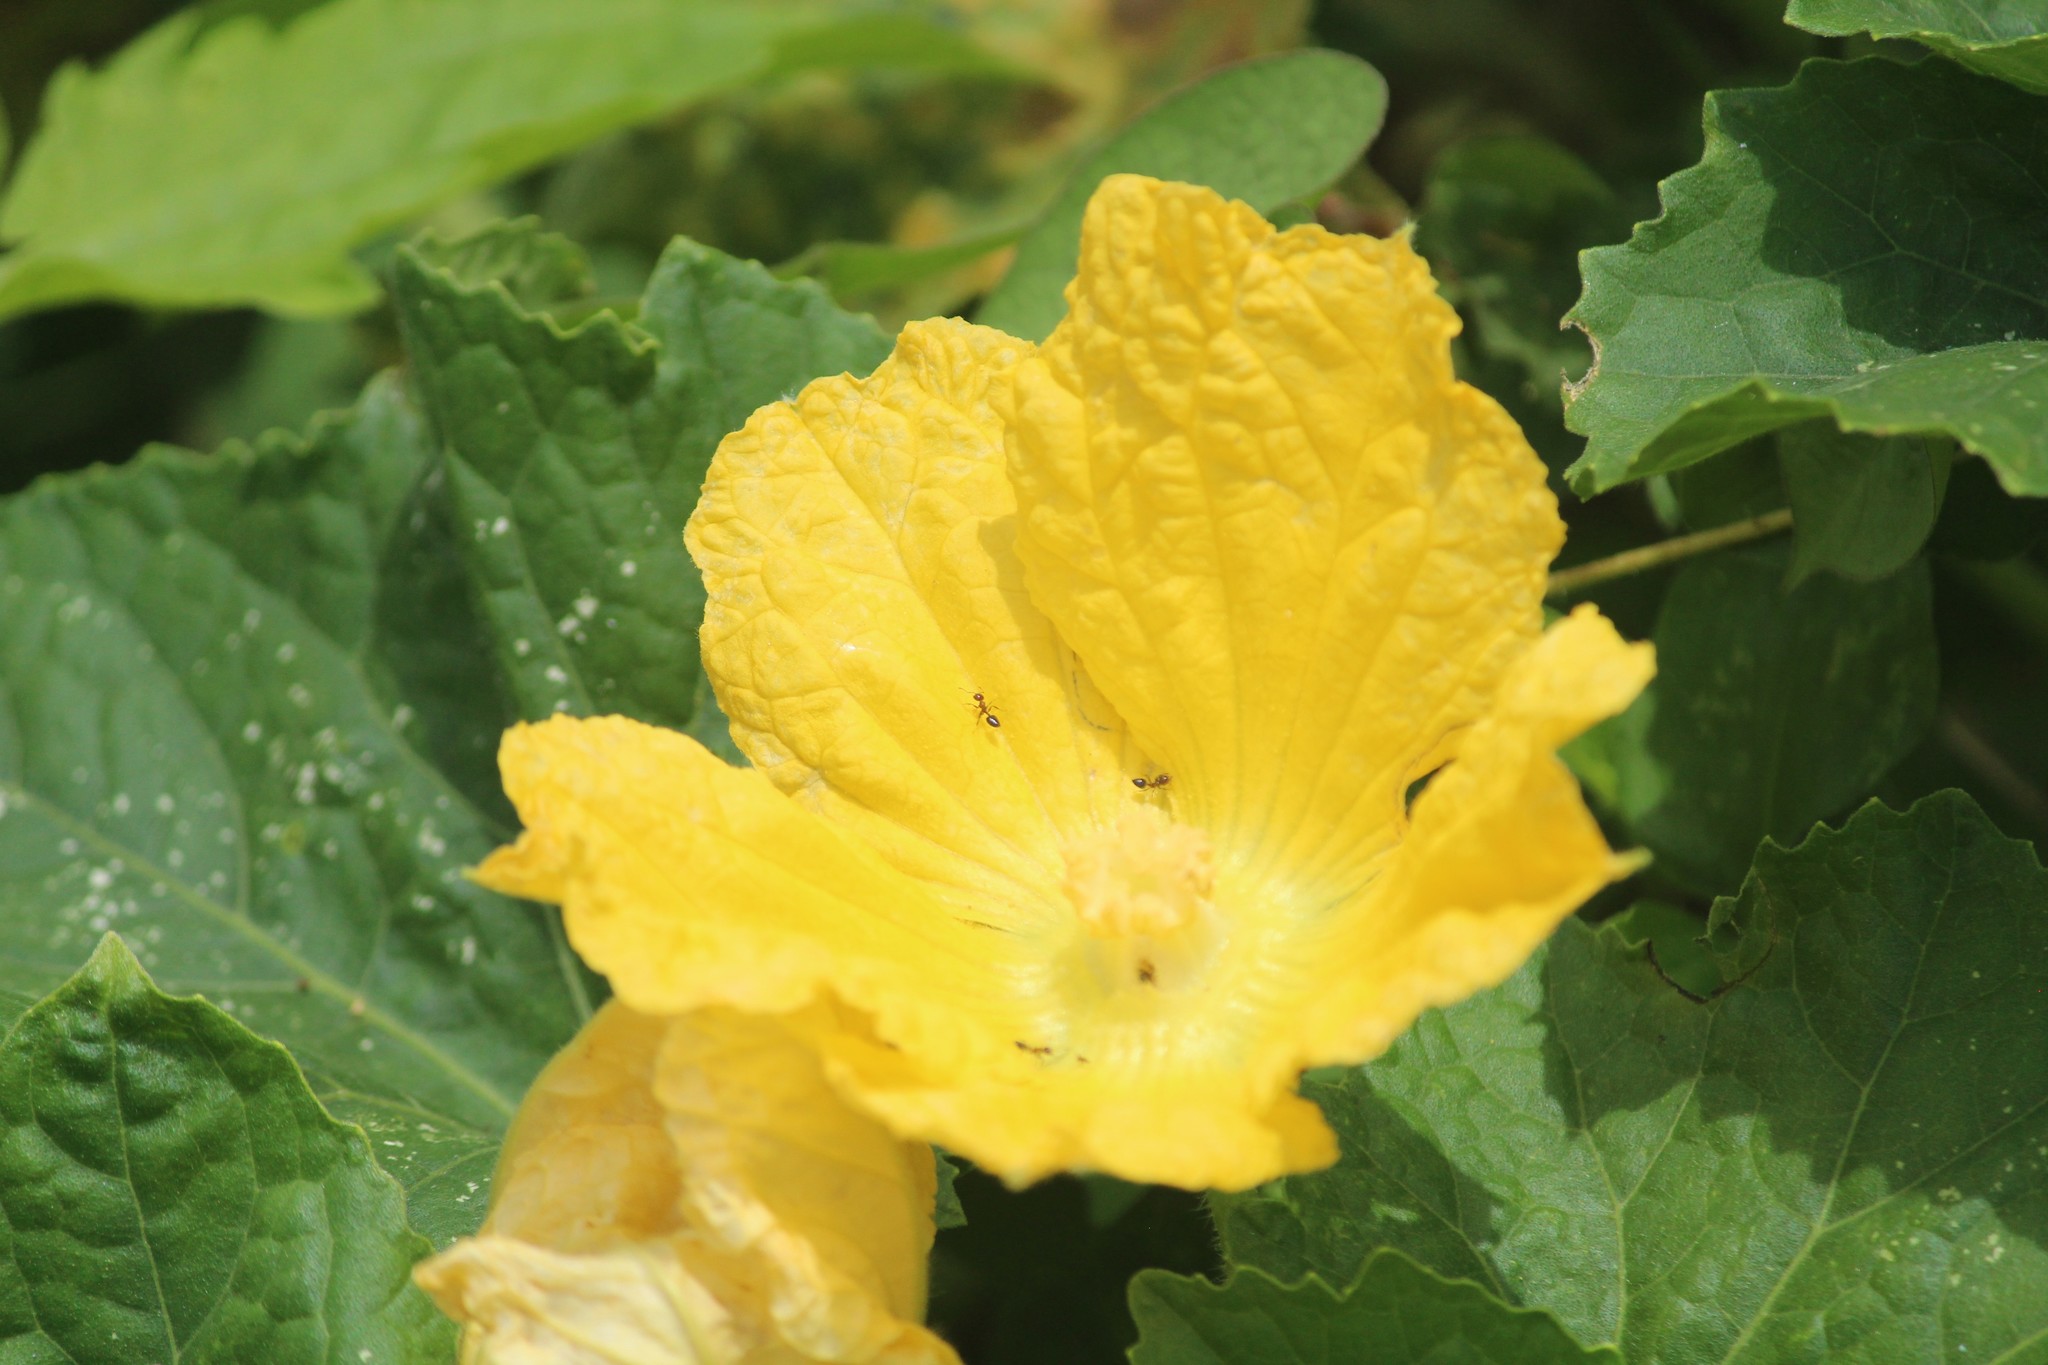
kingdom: Plantae
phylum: Tracheophyta
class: Magnoliopsida
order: Cucurbitales
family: Cucurbitaceae
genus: Benincasa
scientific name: Benincasa hispida
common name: Chinese-watermelon
